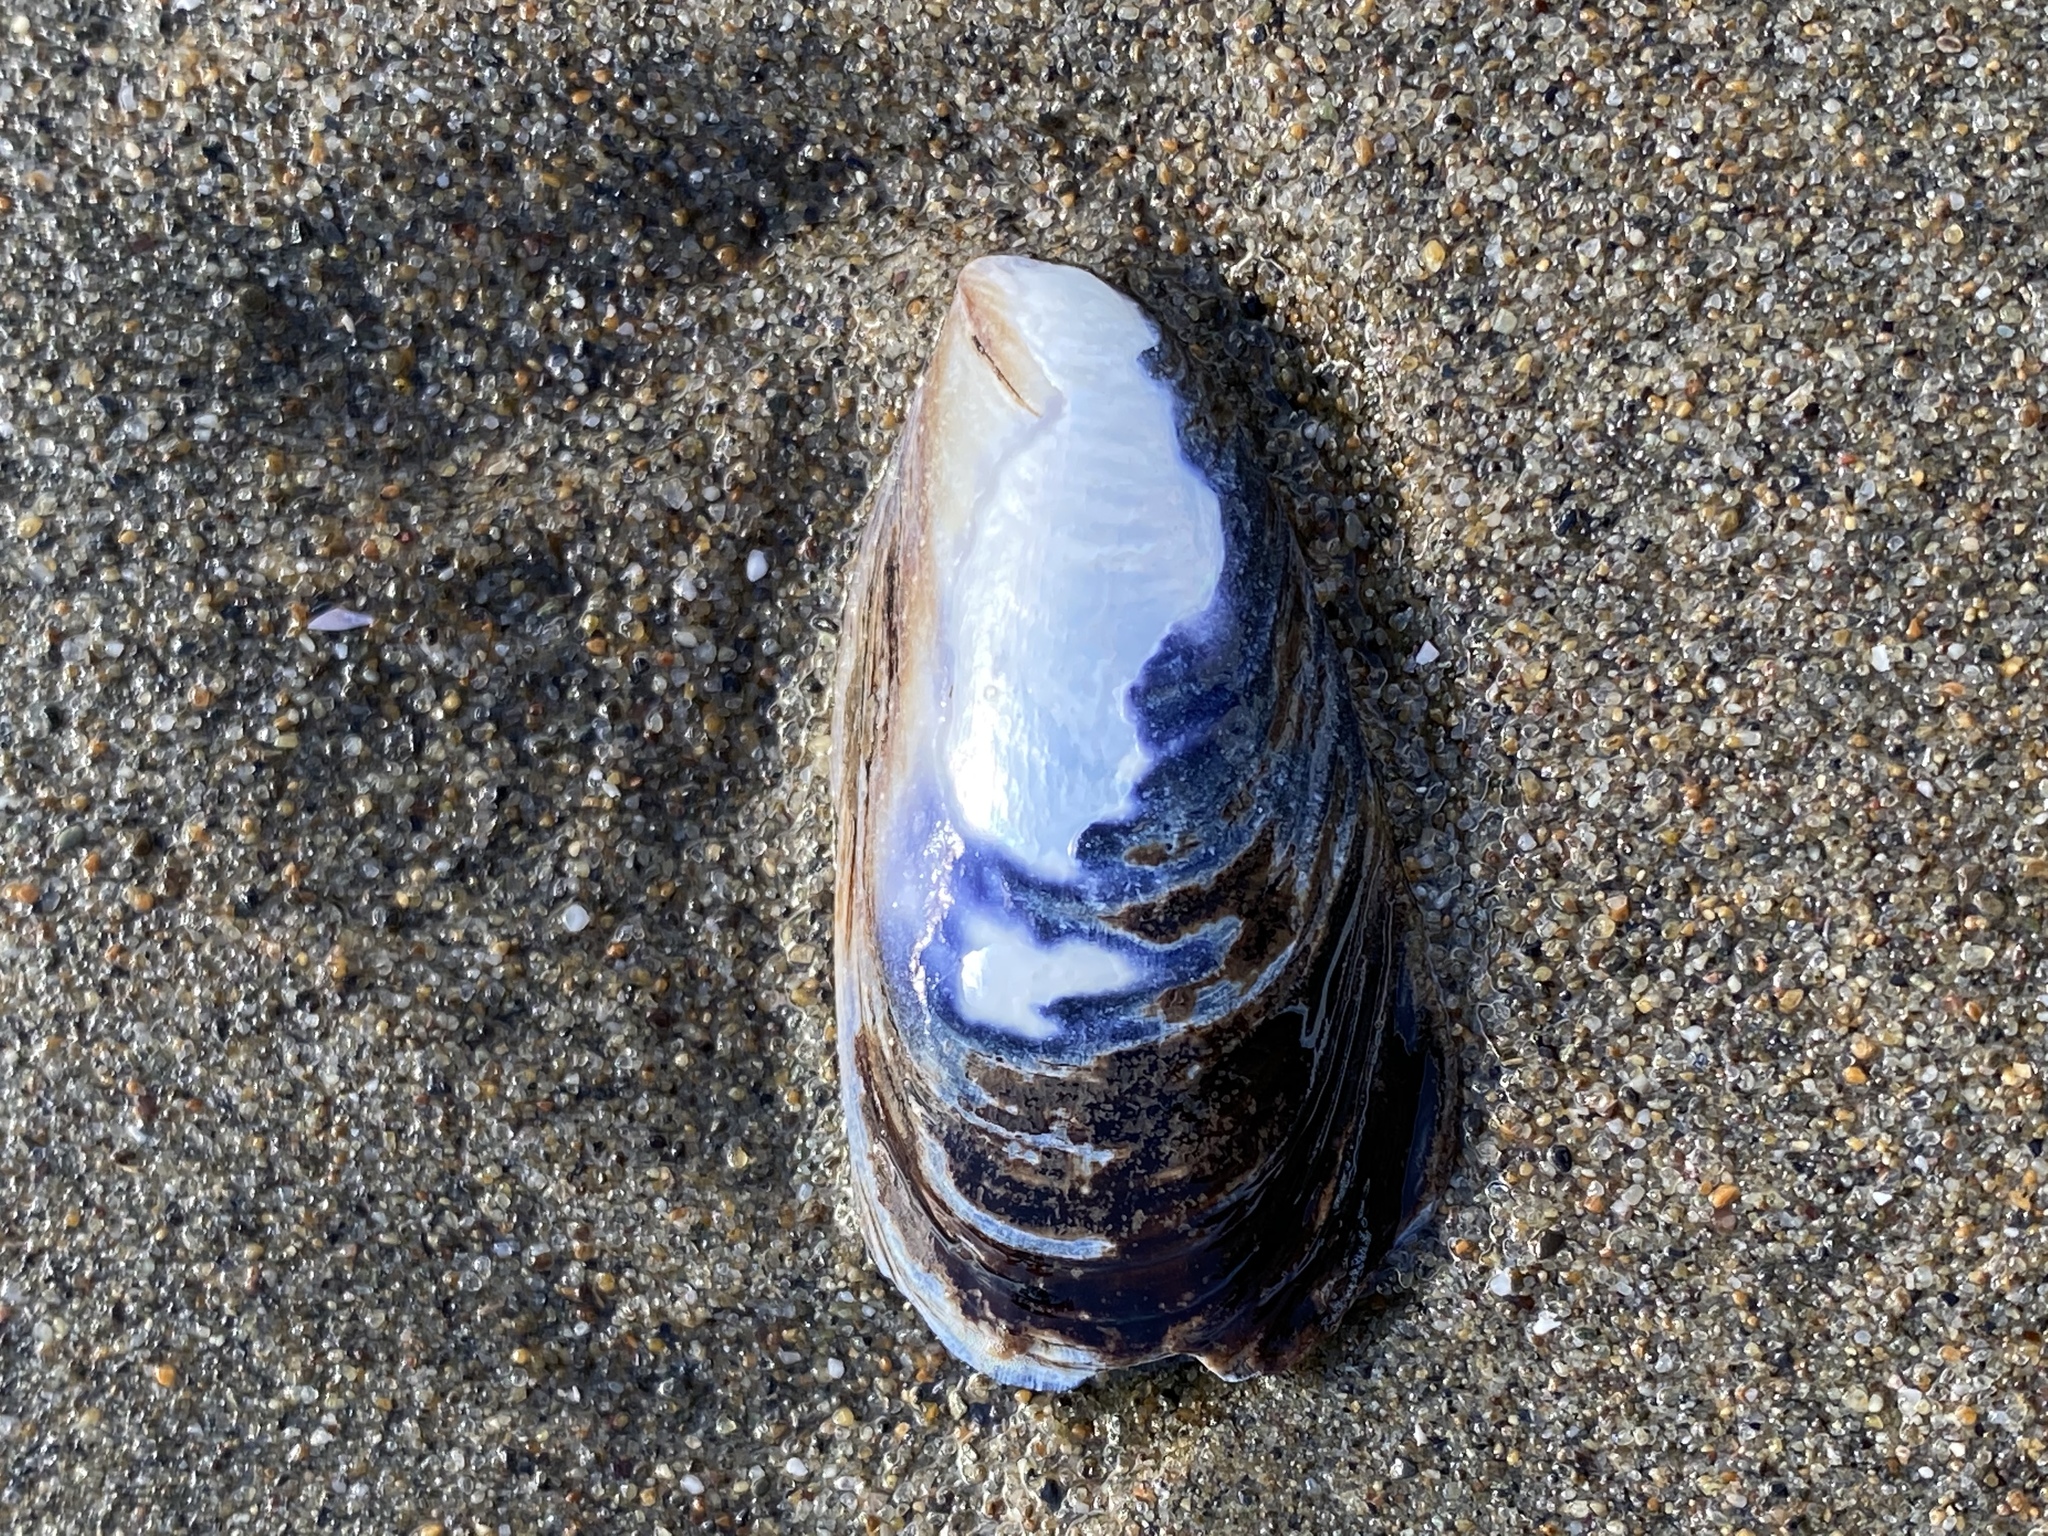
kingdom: Animalia
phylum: Mollusca
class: Bivalvia
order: Mytilida
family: Mytilidae
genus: Mytilus
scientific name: Mytilus californianus
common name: California mussel
